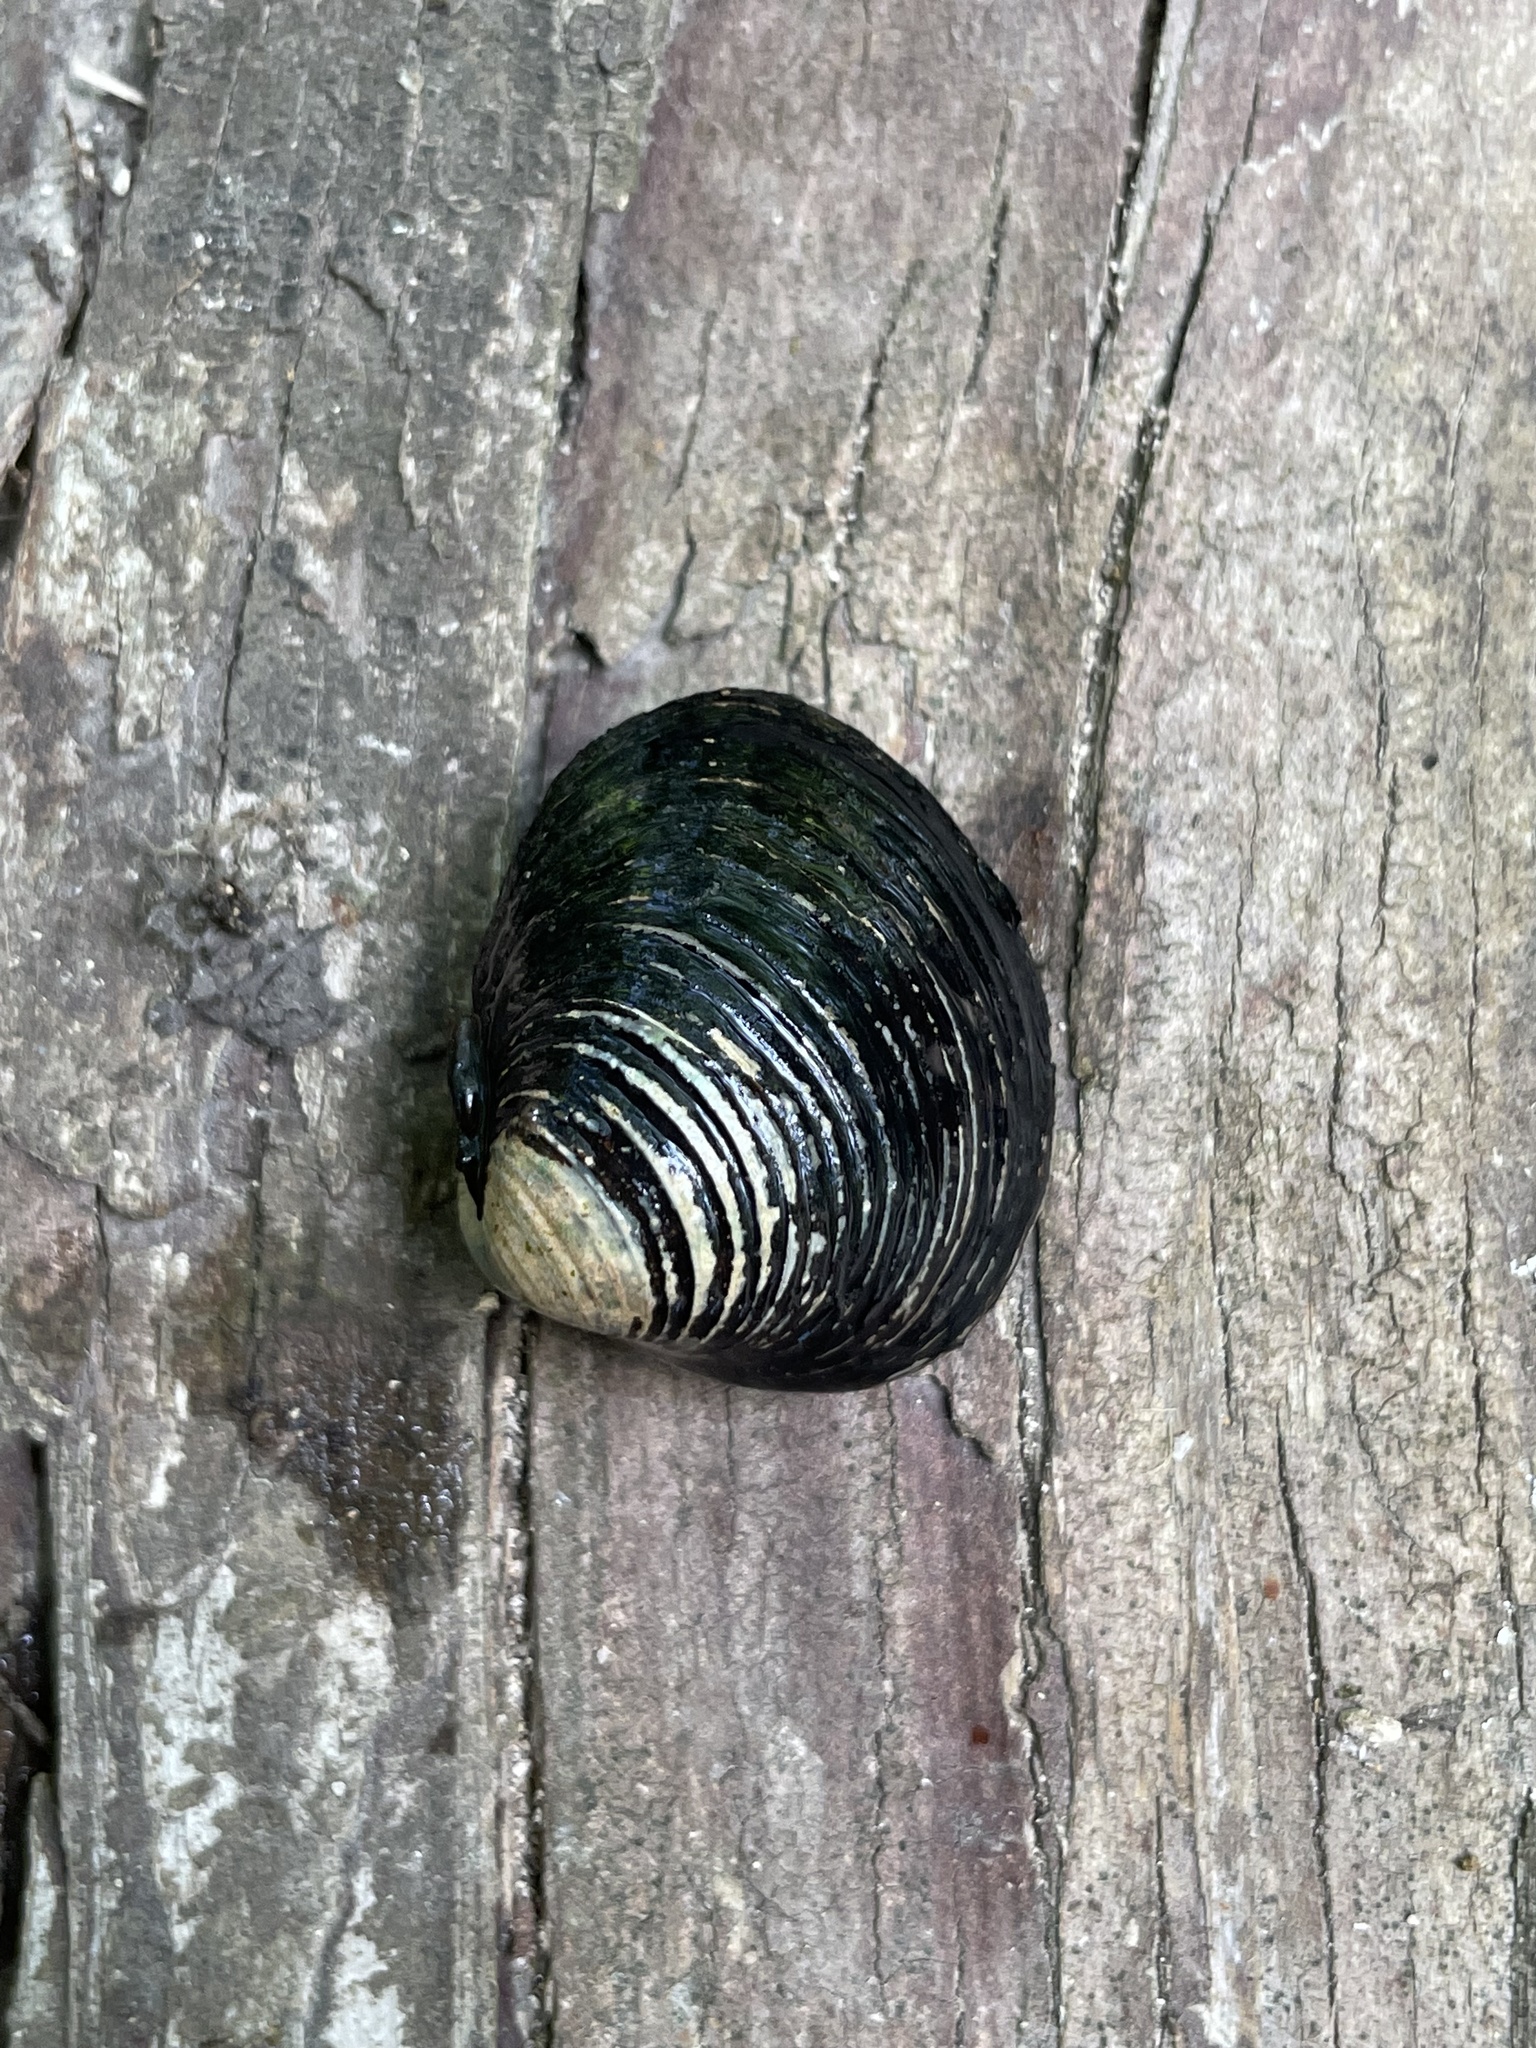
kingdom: Animalia
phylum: Mollusca
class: Bivalvia
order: Venerida
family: Cyrenidae
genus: Corbicula
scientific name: Corbicula fluminea
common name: Asian clam
